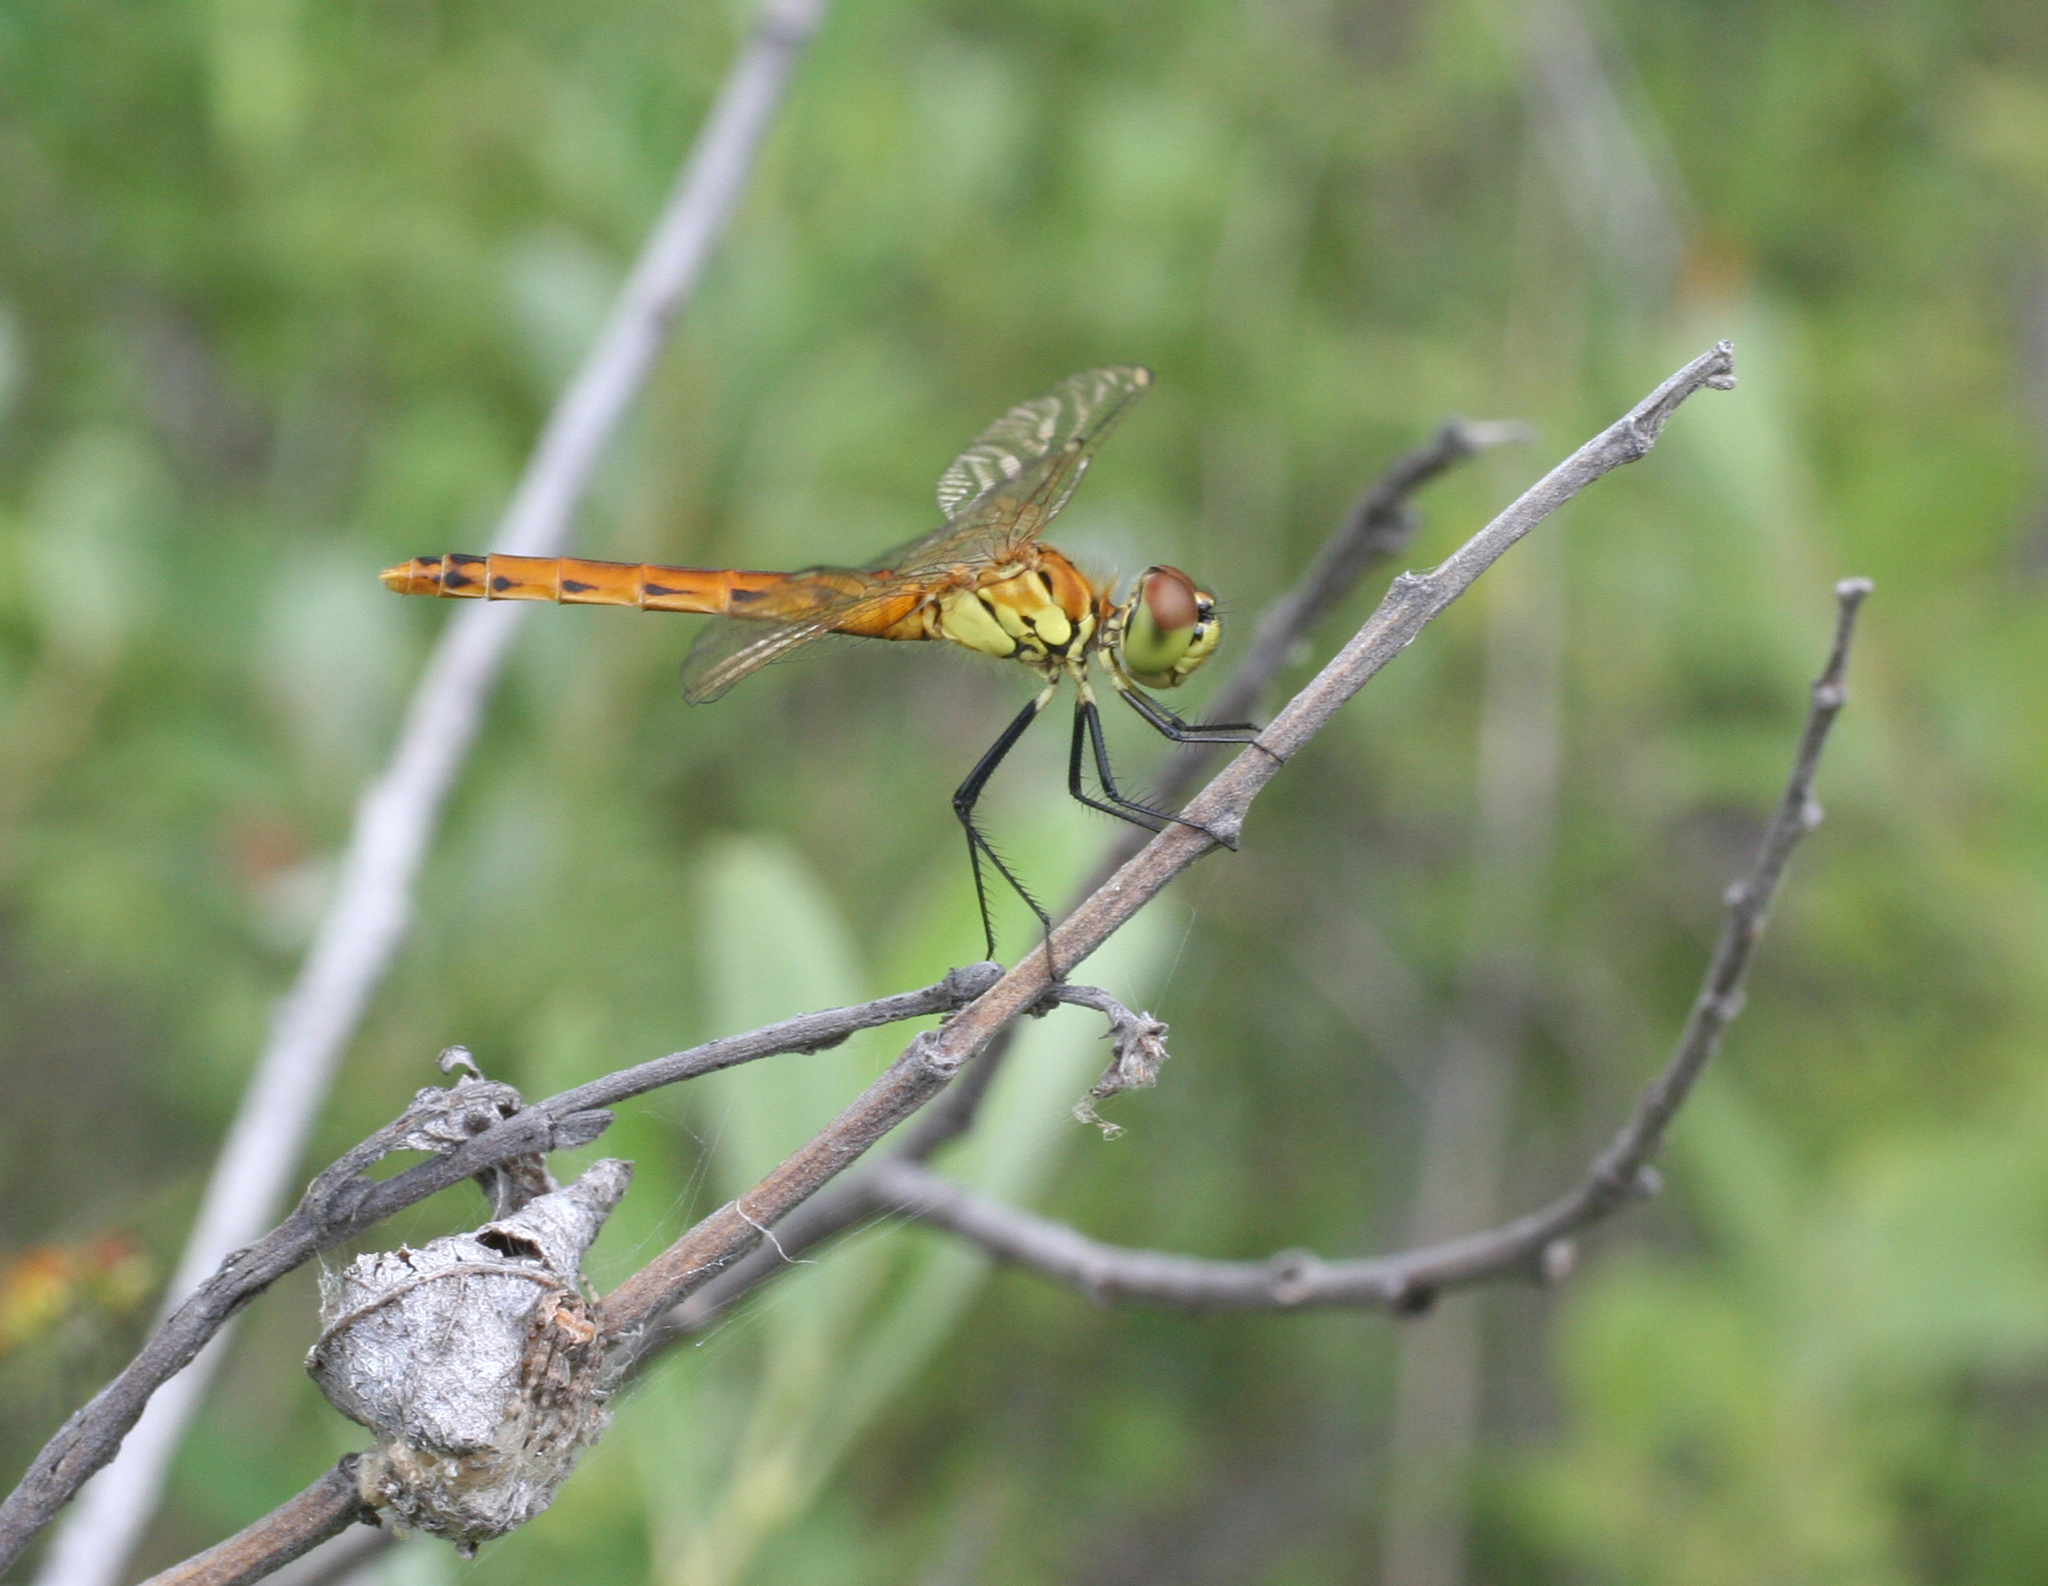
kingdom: Animalia
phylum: Arthropoda
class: Insecta
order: Odonata
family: Libellulidae
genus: Sympetrum
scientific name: Sympetrum depressiusculum
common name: Spotted darter
